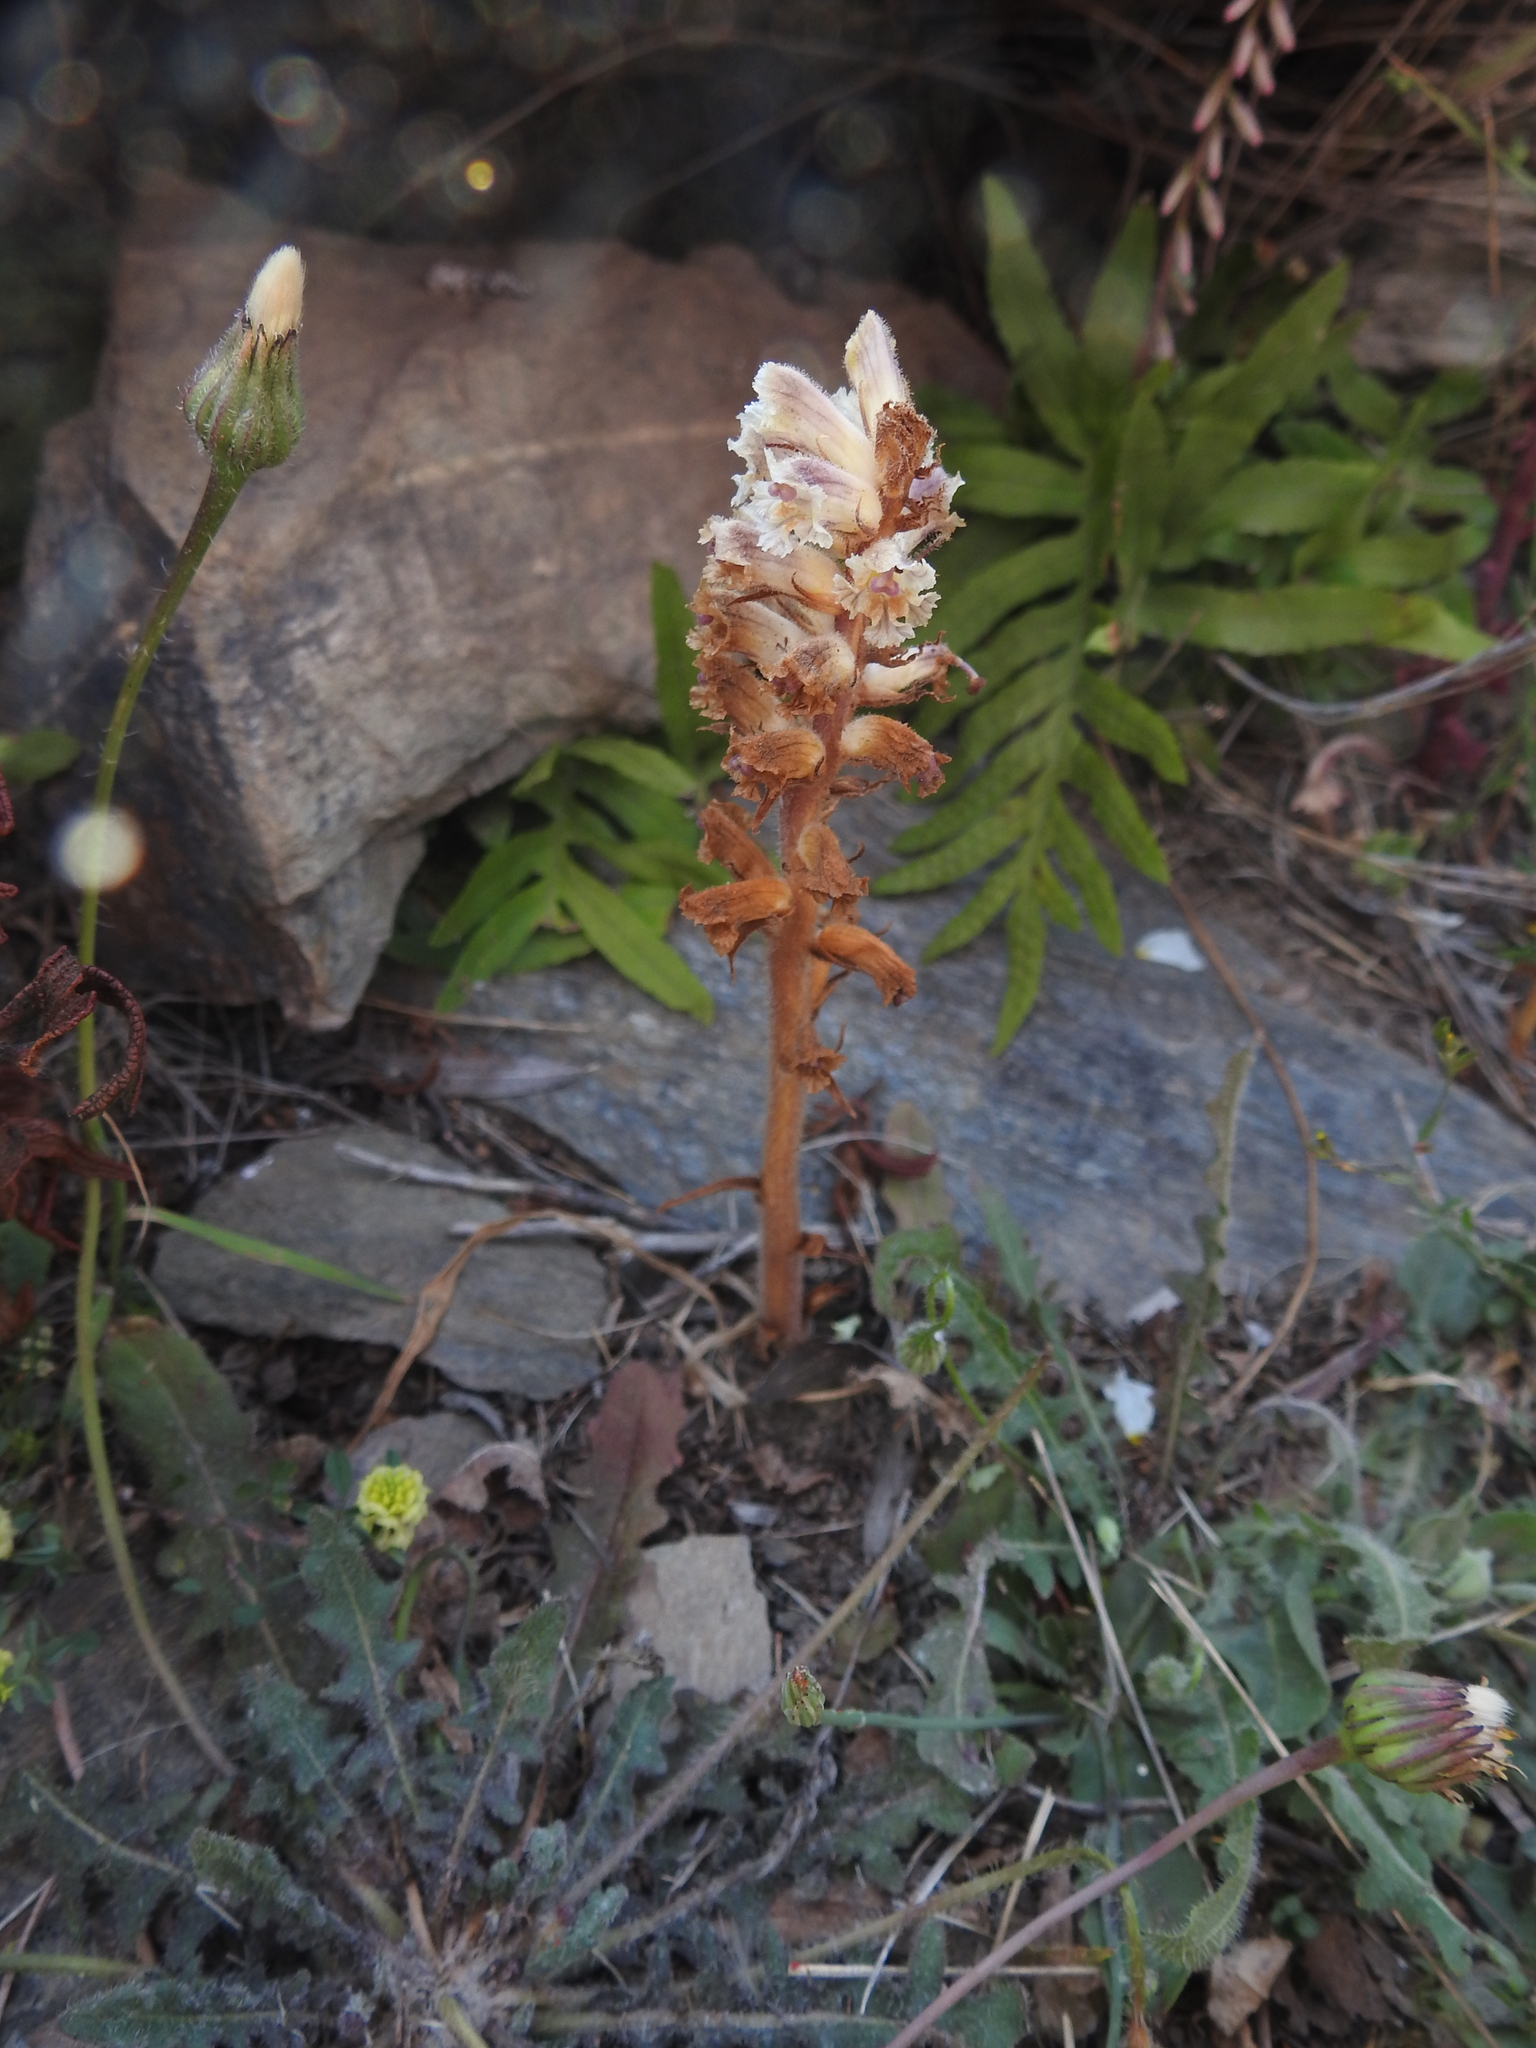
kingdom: Plantae
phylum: Tracheophyta
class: Magnoliopsida
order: Lamiales
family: Orobanchaceae
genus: Orobanche
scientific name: Orobanche minor
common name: Common broomrape
